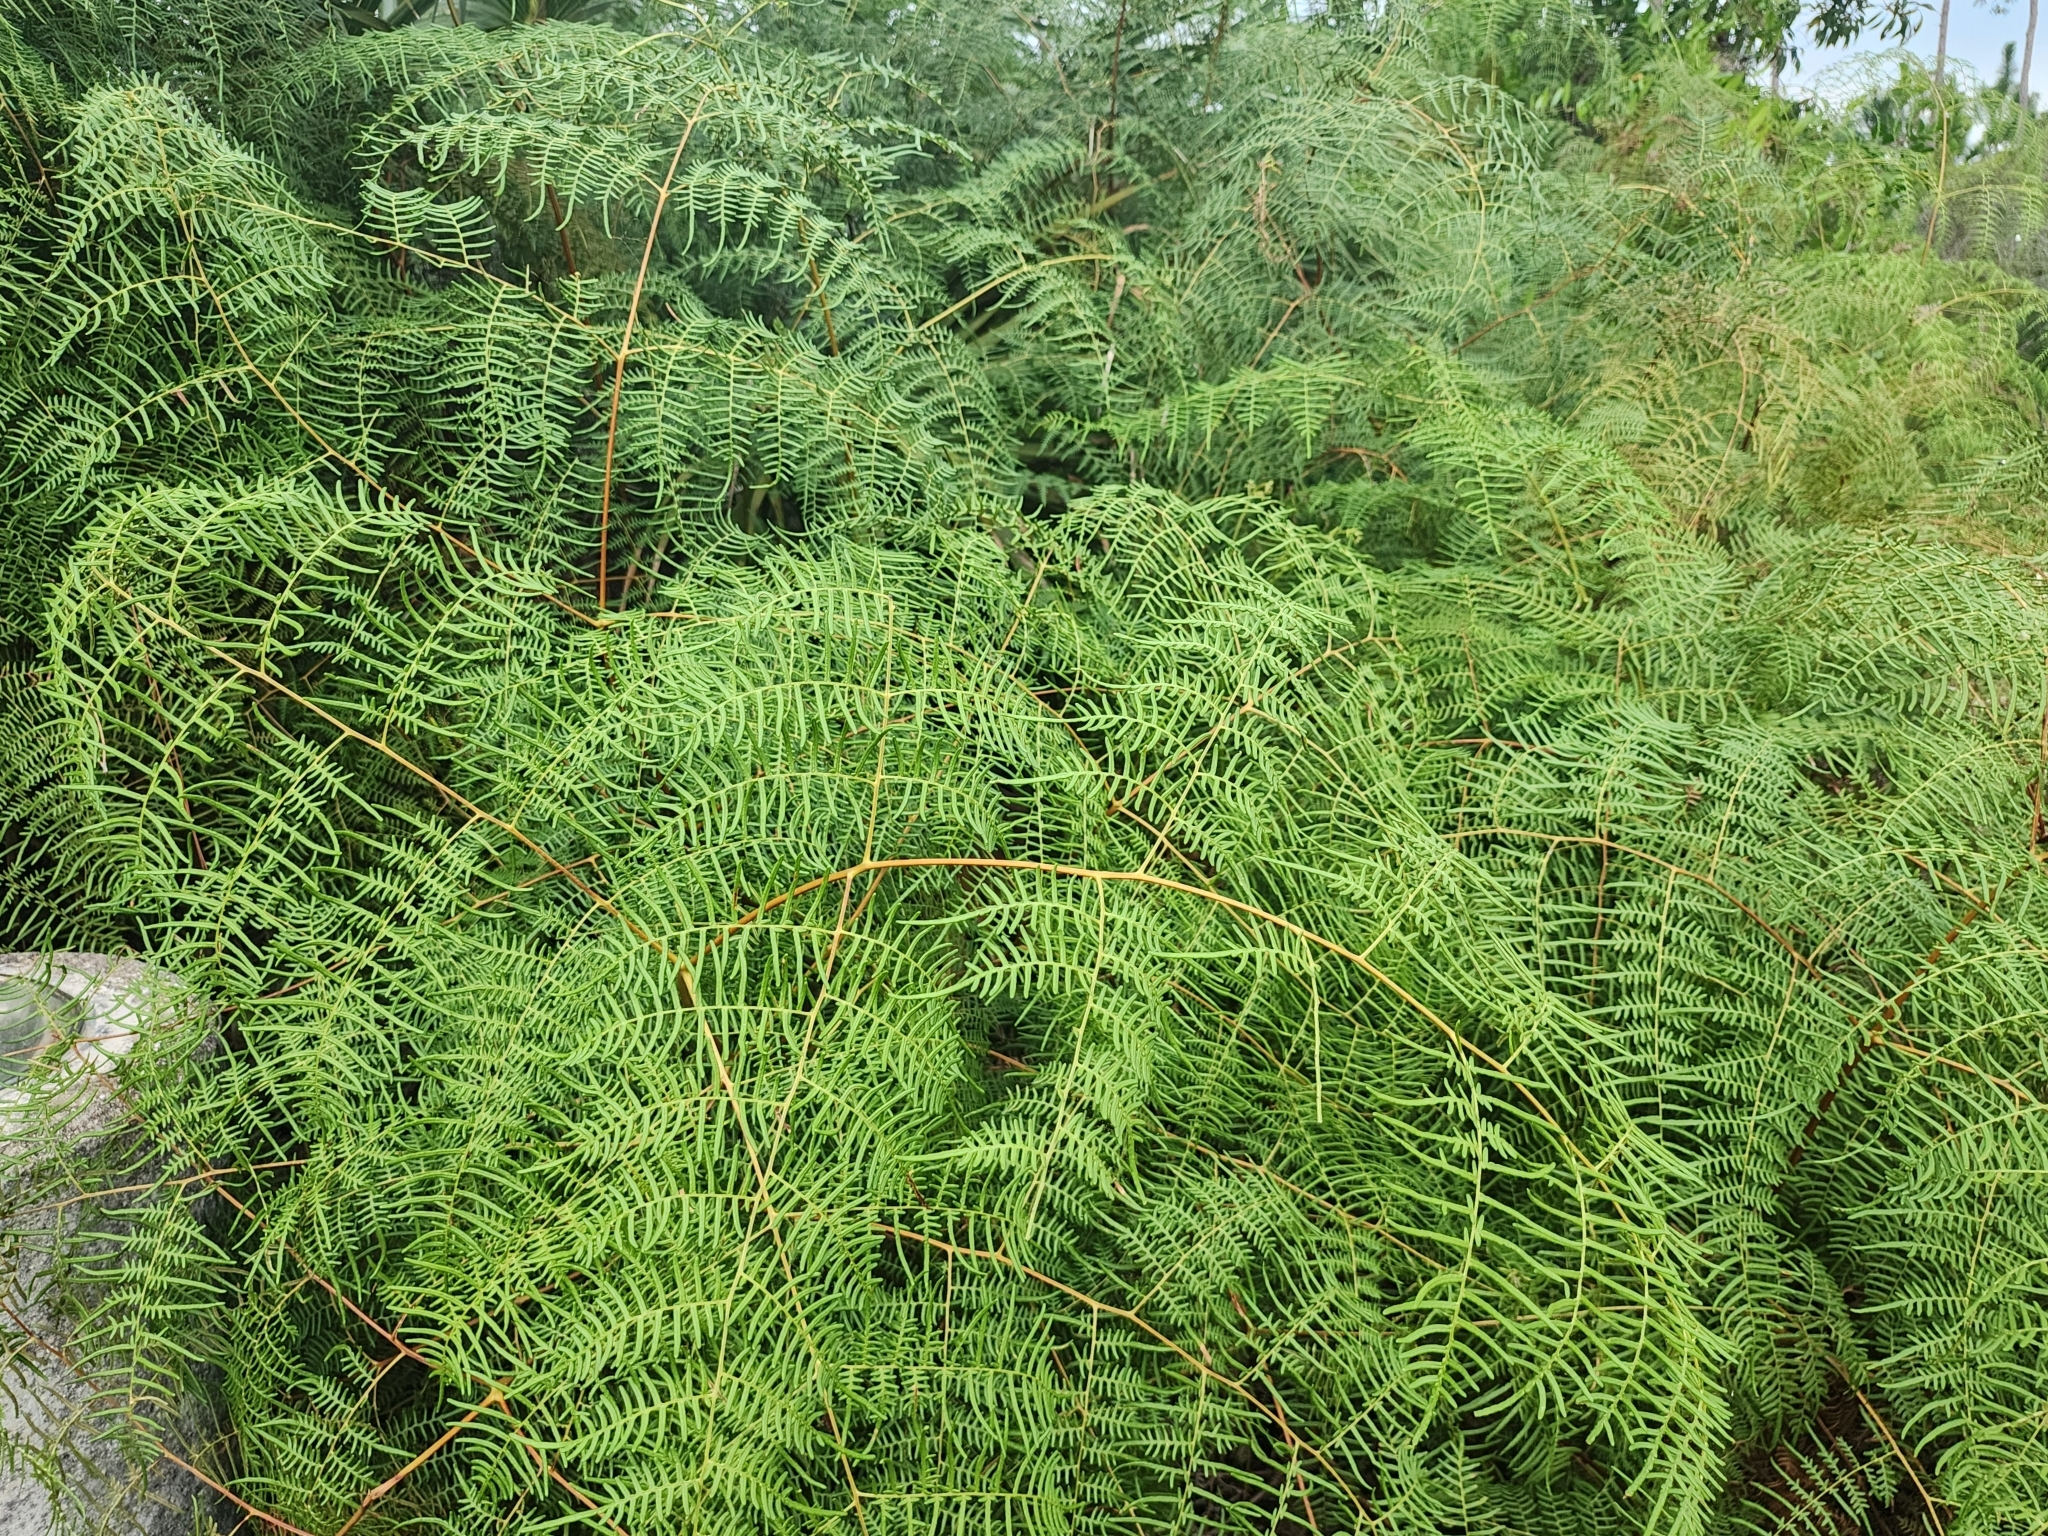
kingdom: Plantae
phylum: Tracheophyta
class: Polypodiopsida
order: Polypodiales
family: Dennstaedtiaceae
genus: Pteridium
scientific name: Pteridium caudatum
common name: Southern bracken fern
